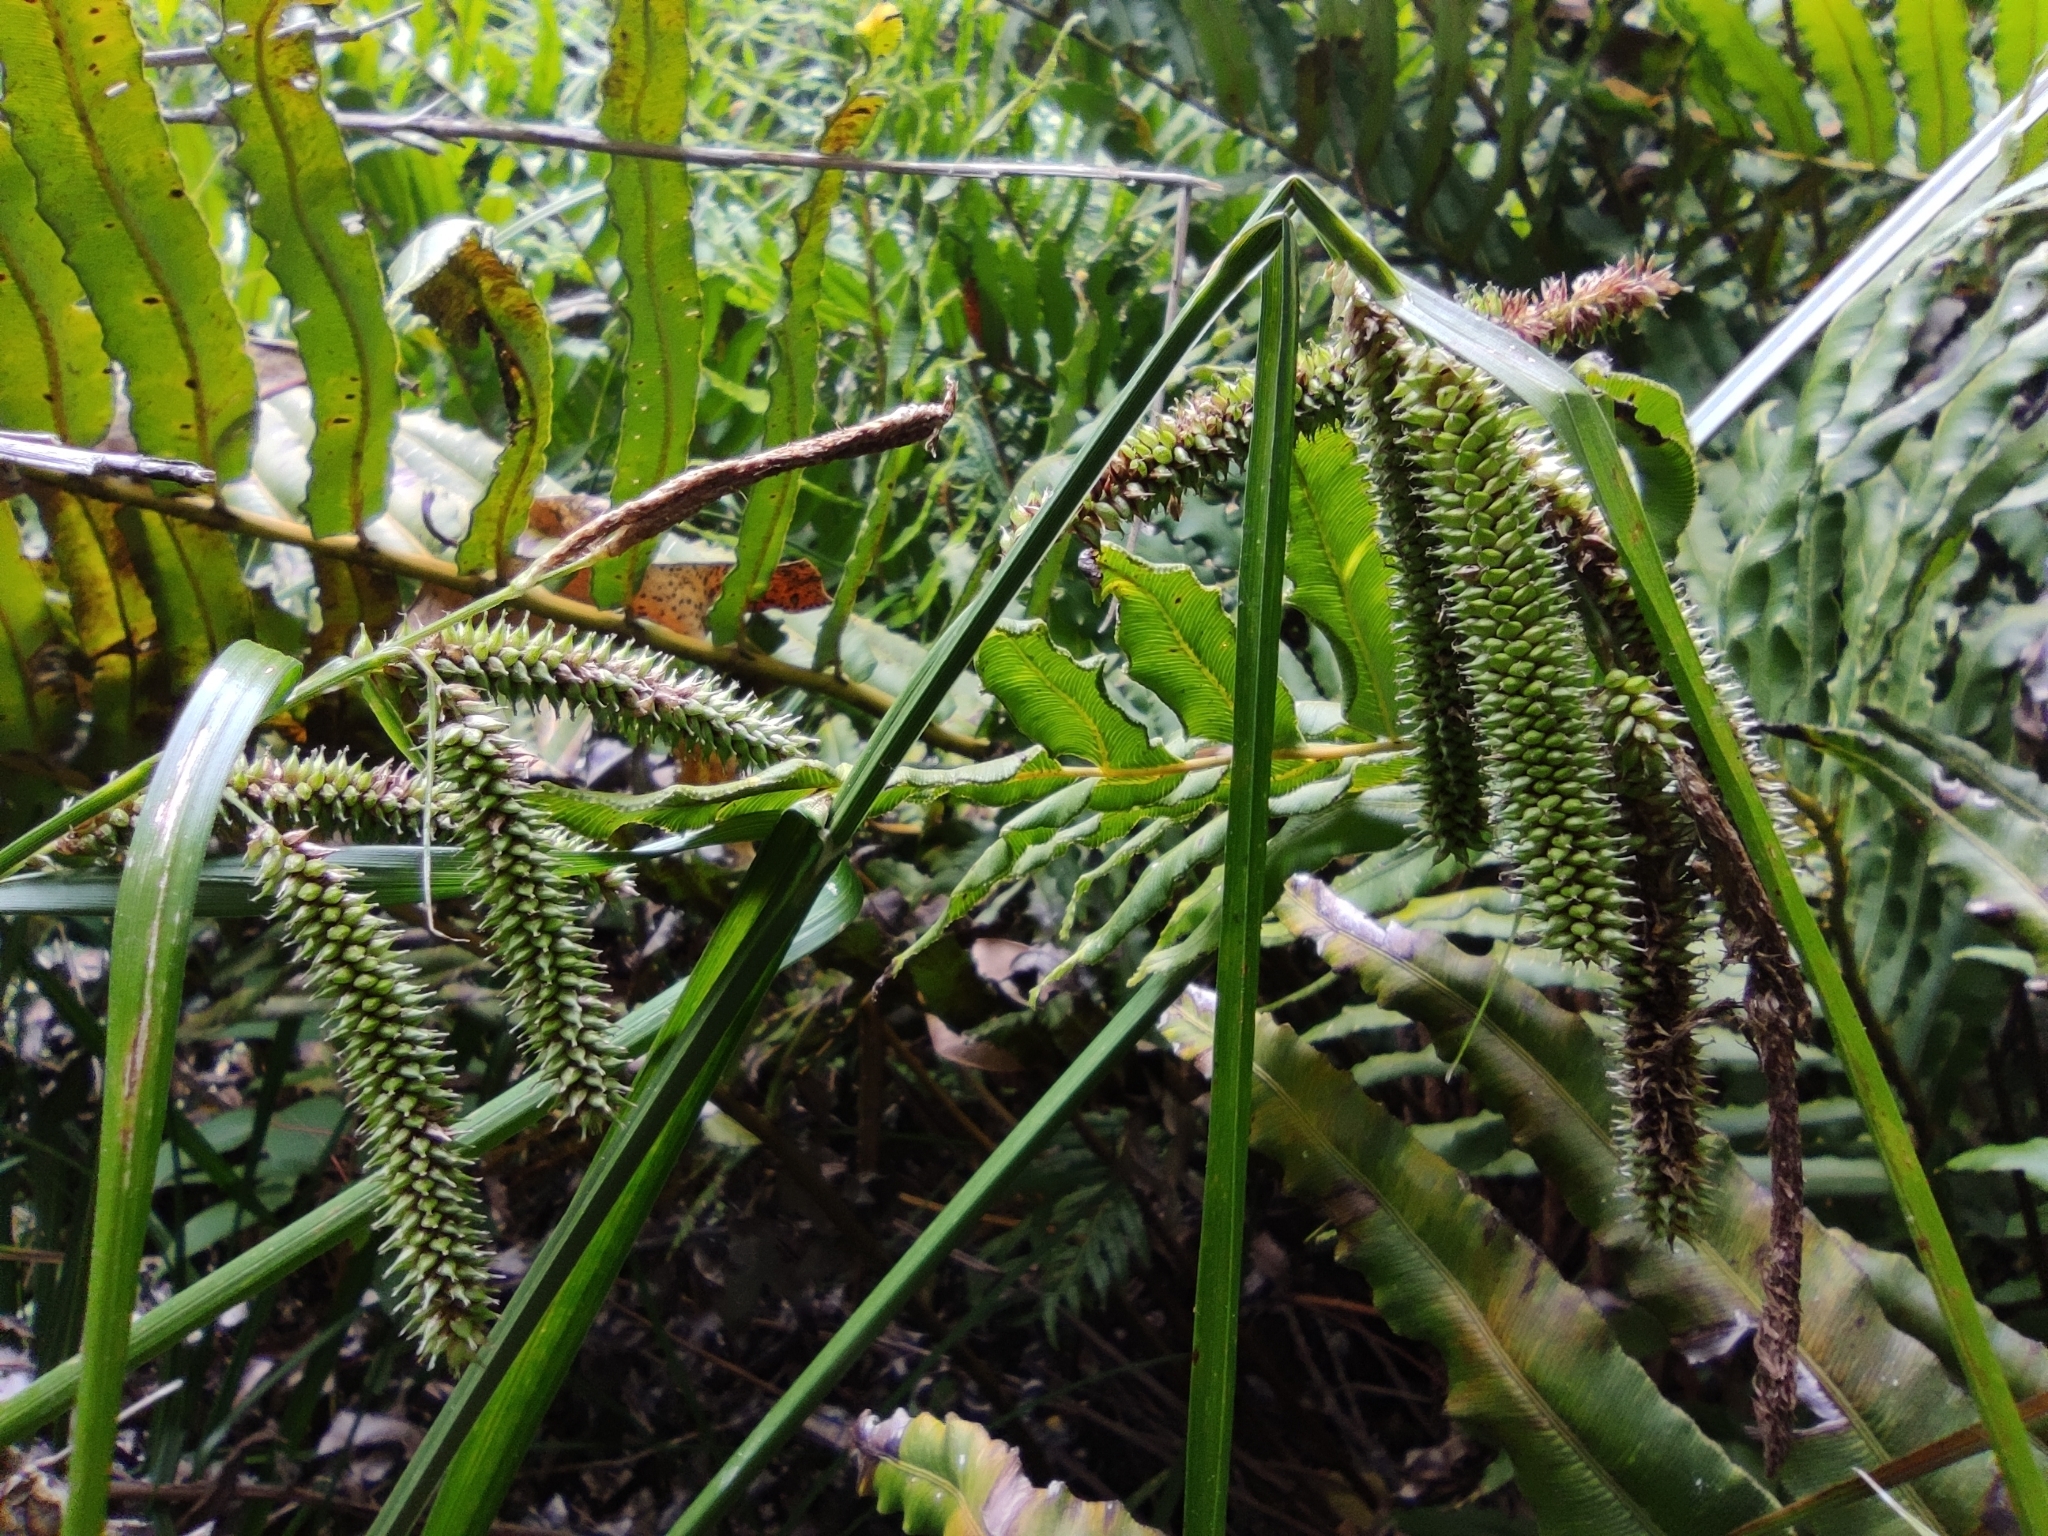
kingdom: Plantae
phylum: Tracheophyta
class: Liliopsida
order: Poales
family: Cyperaceae
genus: Carex
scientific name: Carex multispicata
